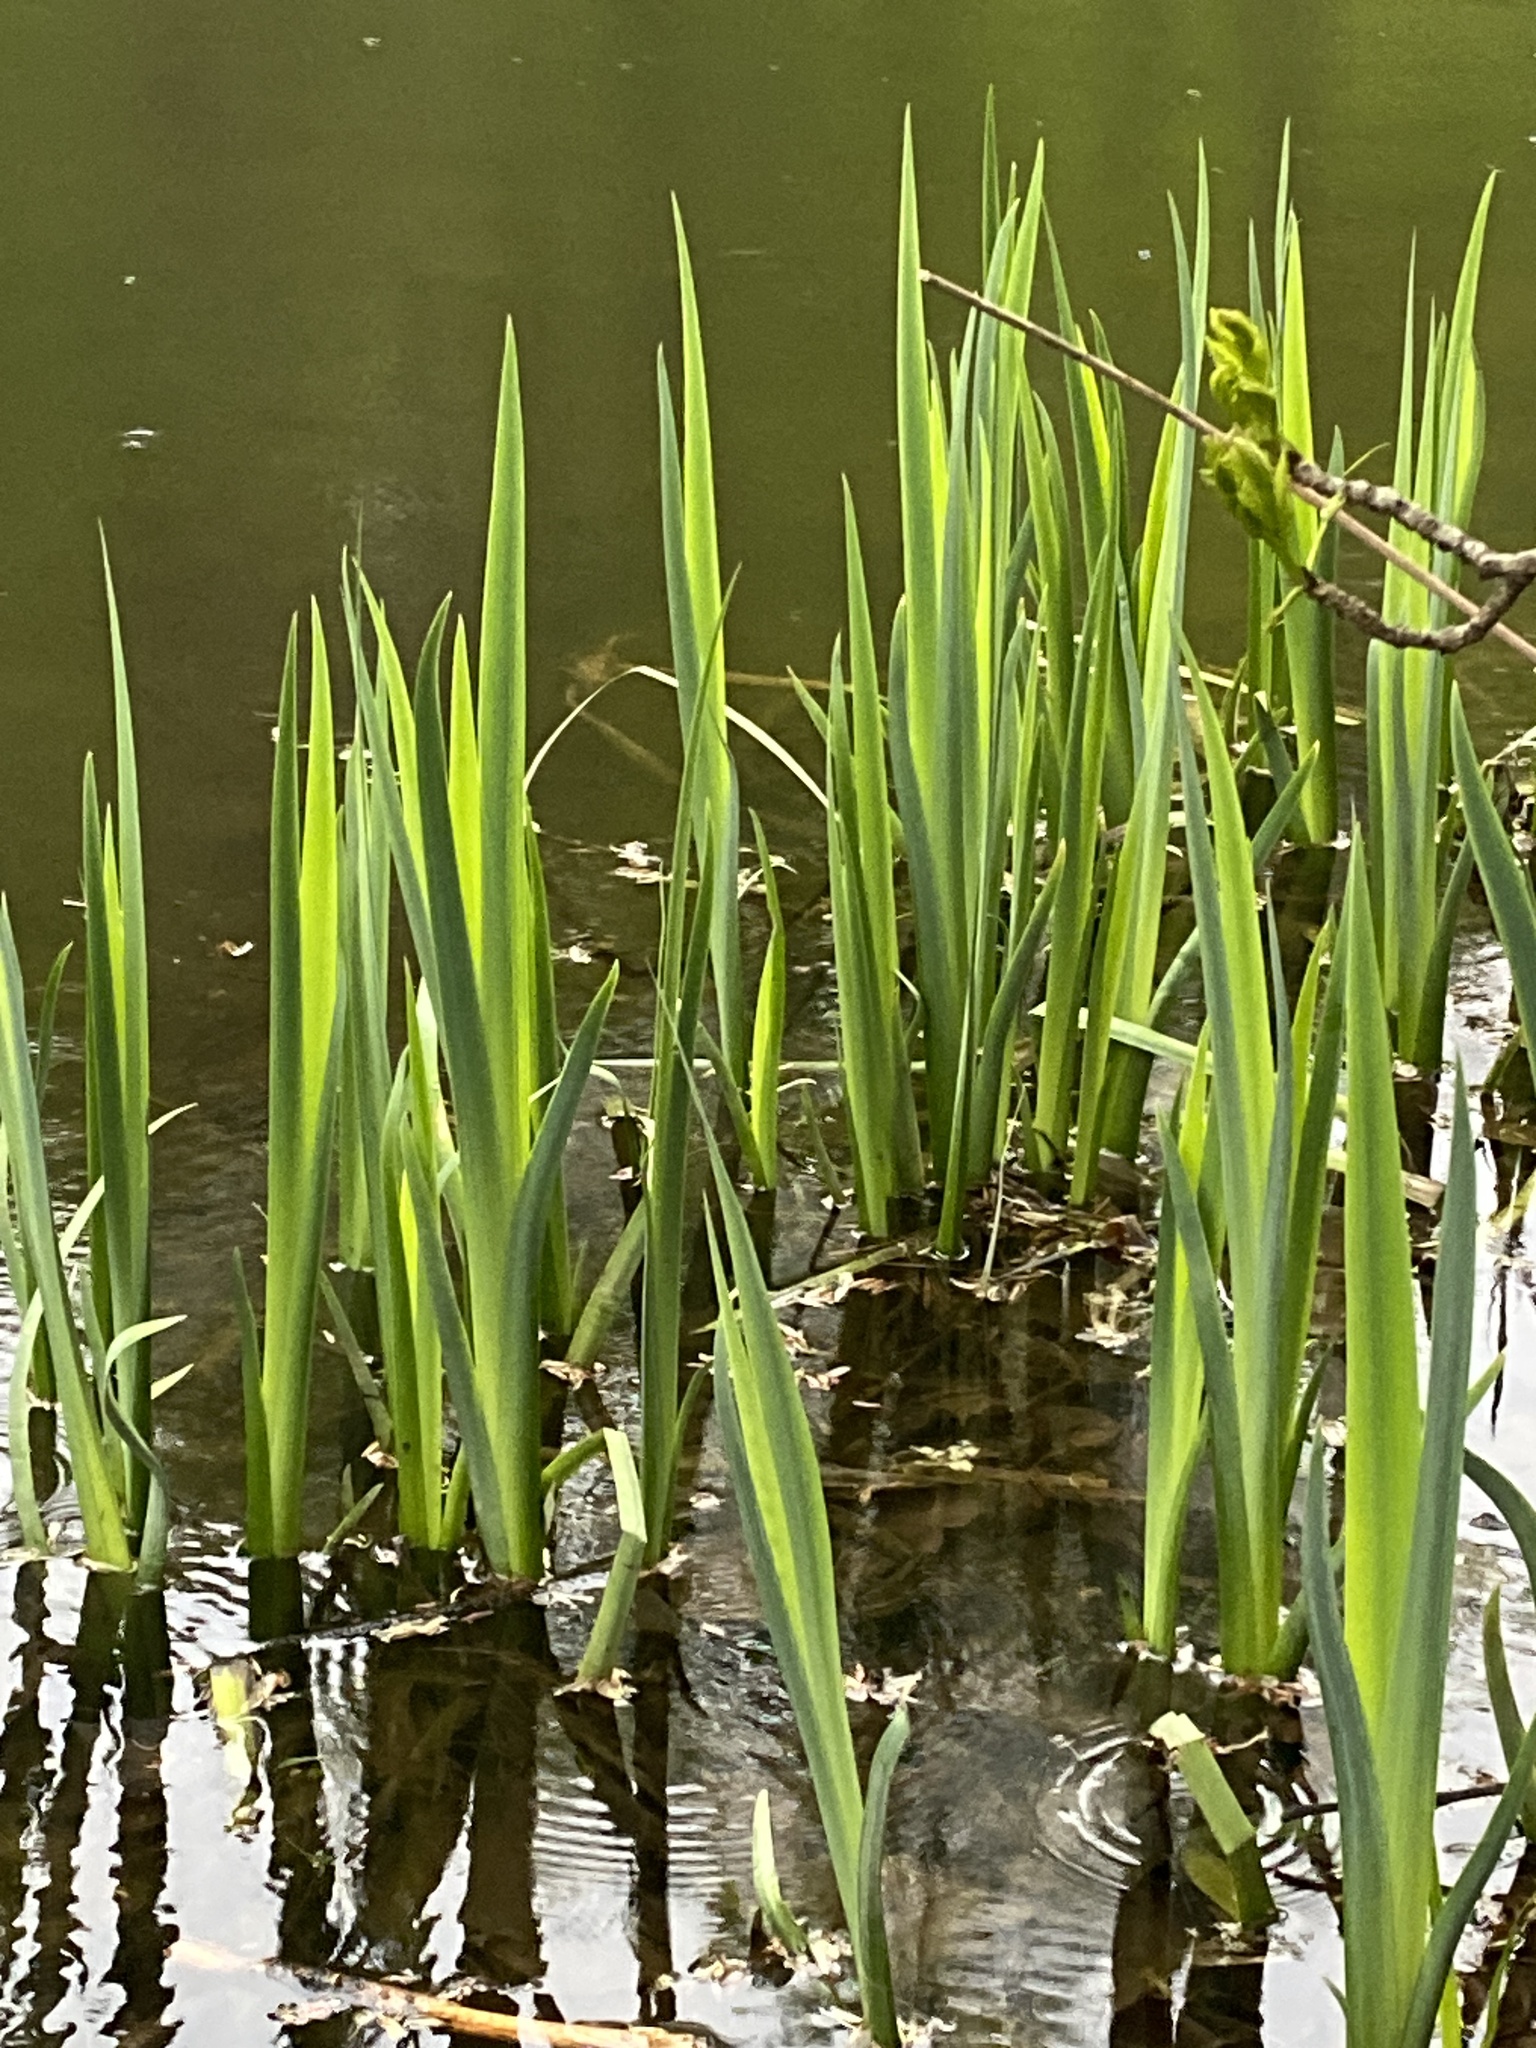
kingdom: Plantae
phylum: Tracheophyta
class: Liliopsida
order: Asparagales
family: Iridaceae
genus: Iris
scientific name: Iris pseudacorus
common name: Yellow flag
